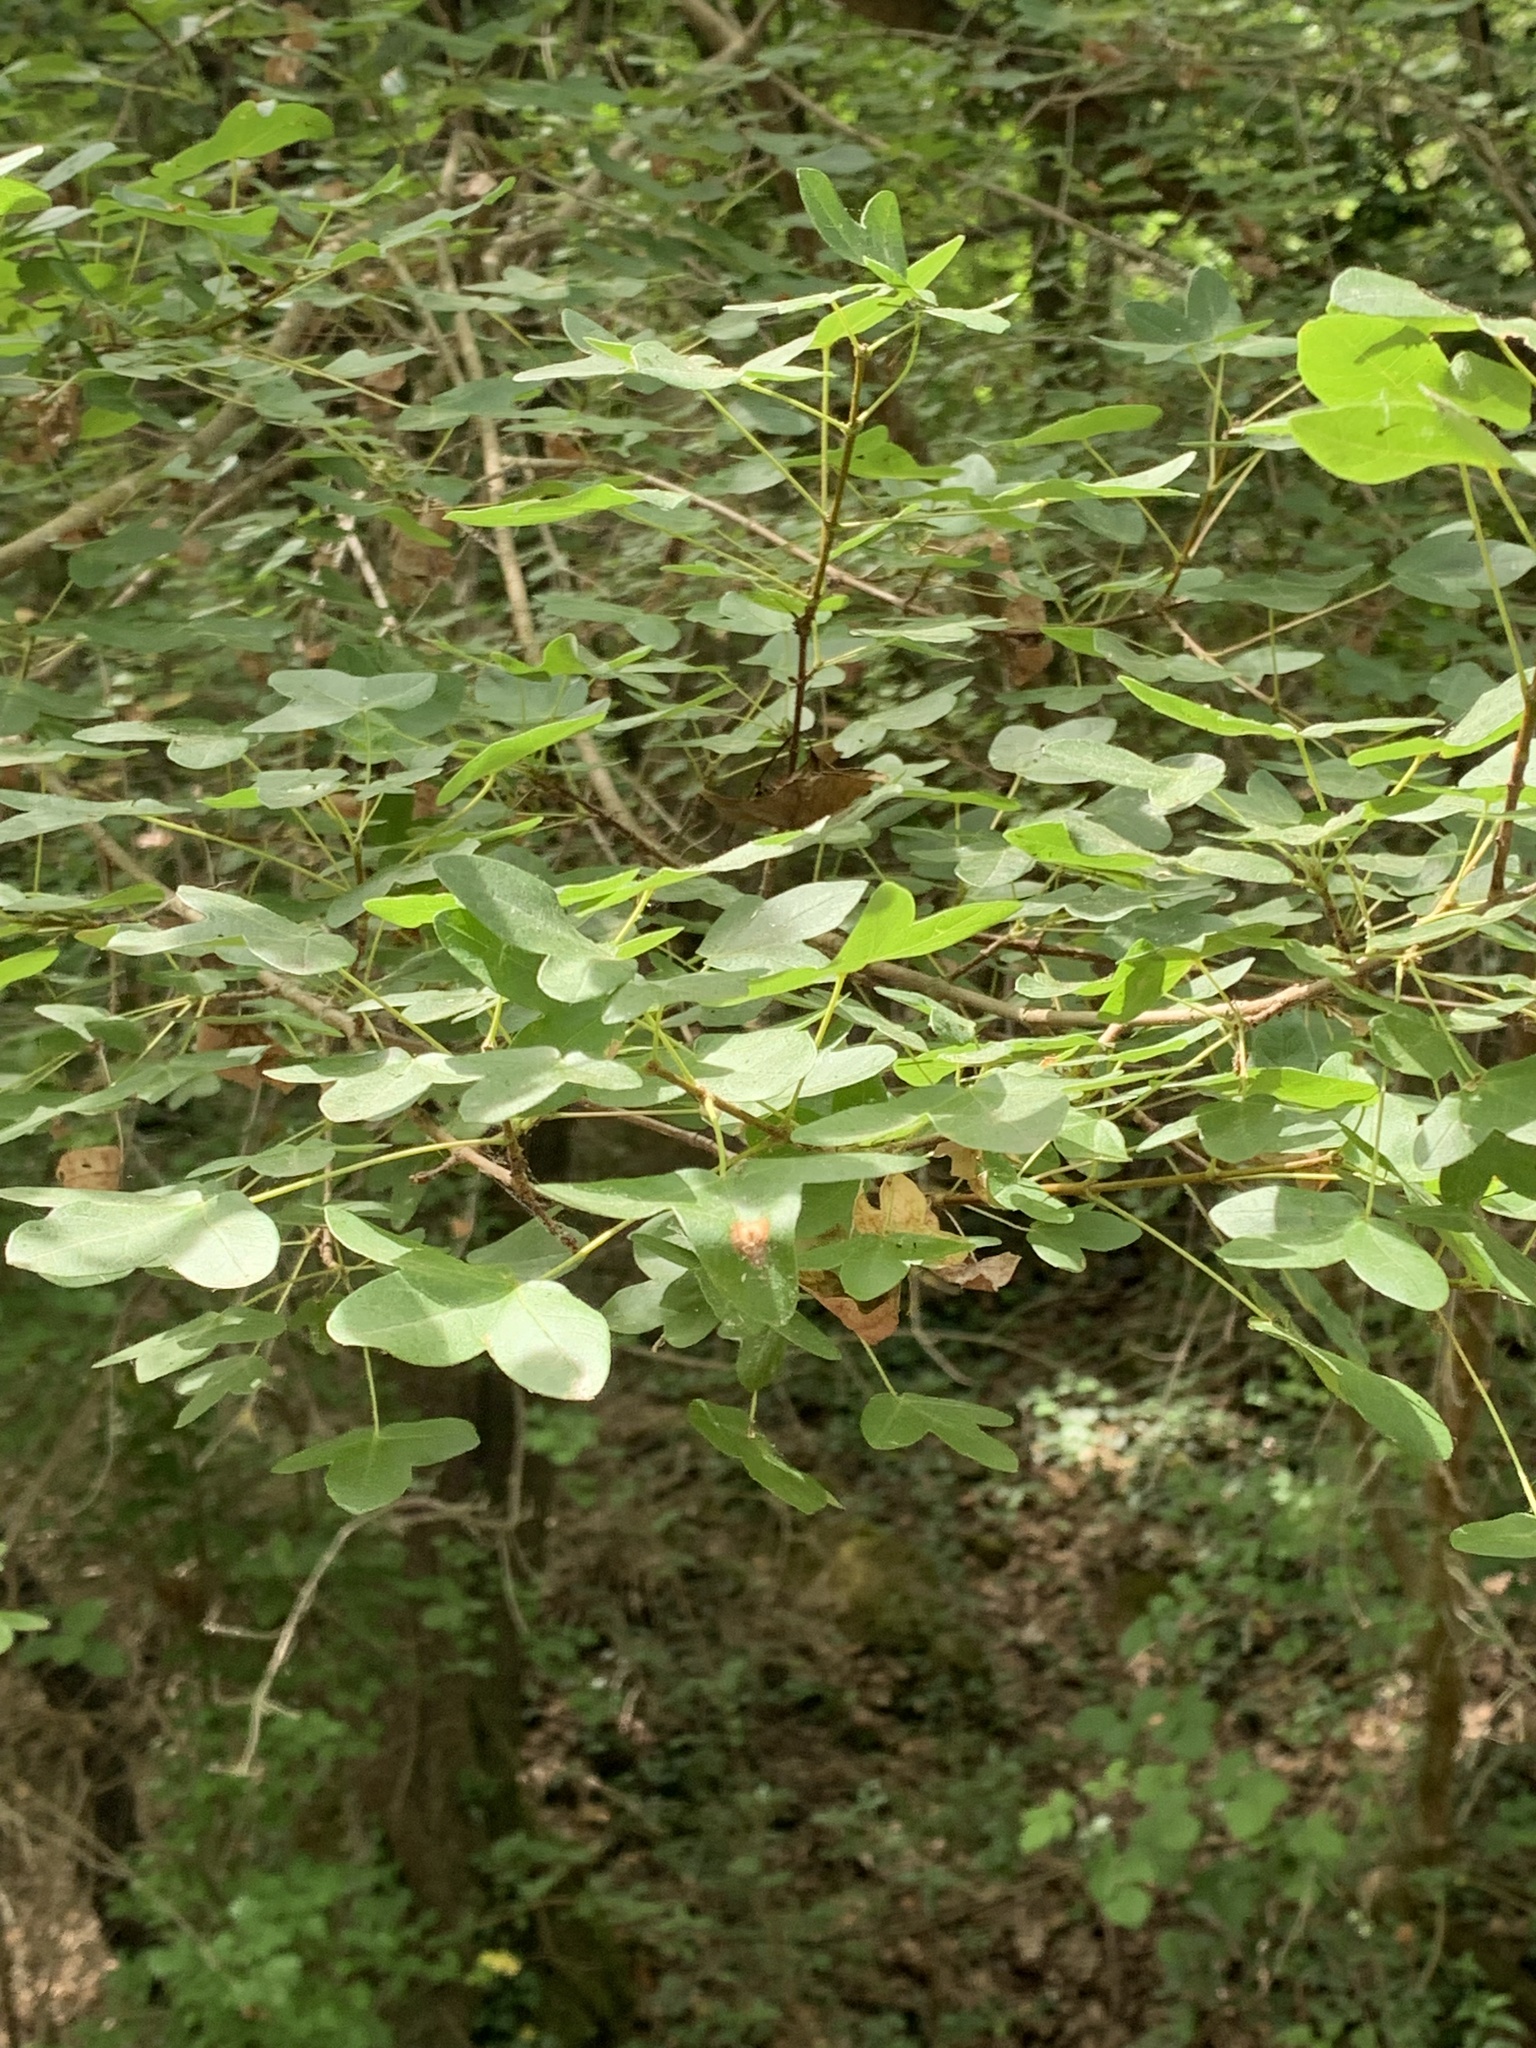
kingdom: Plantae
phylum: Tracheophyta
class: Magnoliopsida
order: Sapindales
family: Sapindaceae
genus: Acer
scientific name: Acer monspessulanum
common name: Montpellier maple
